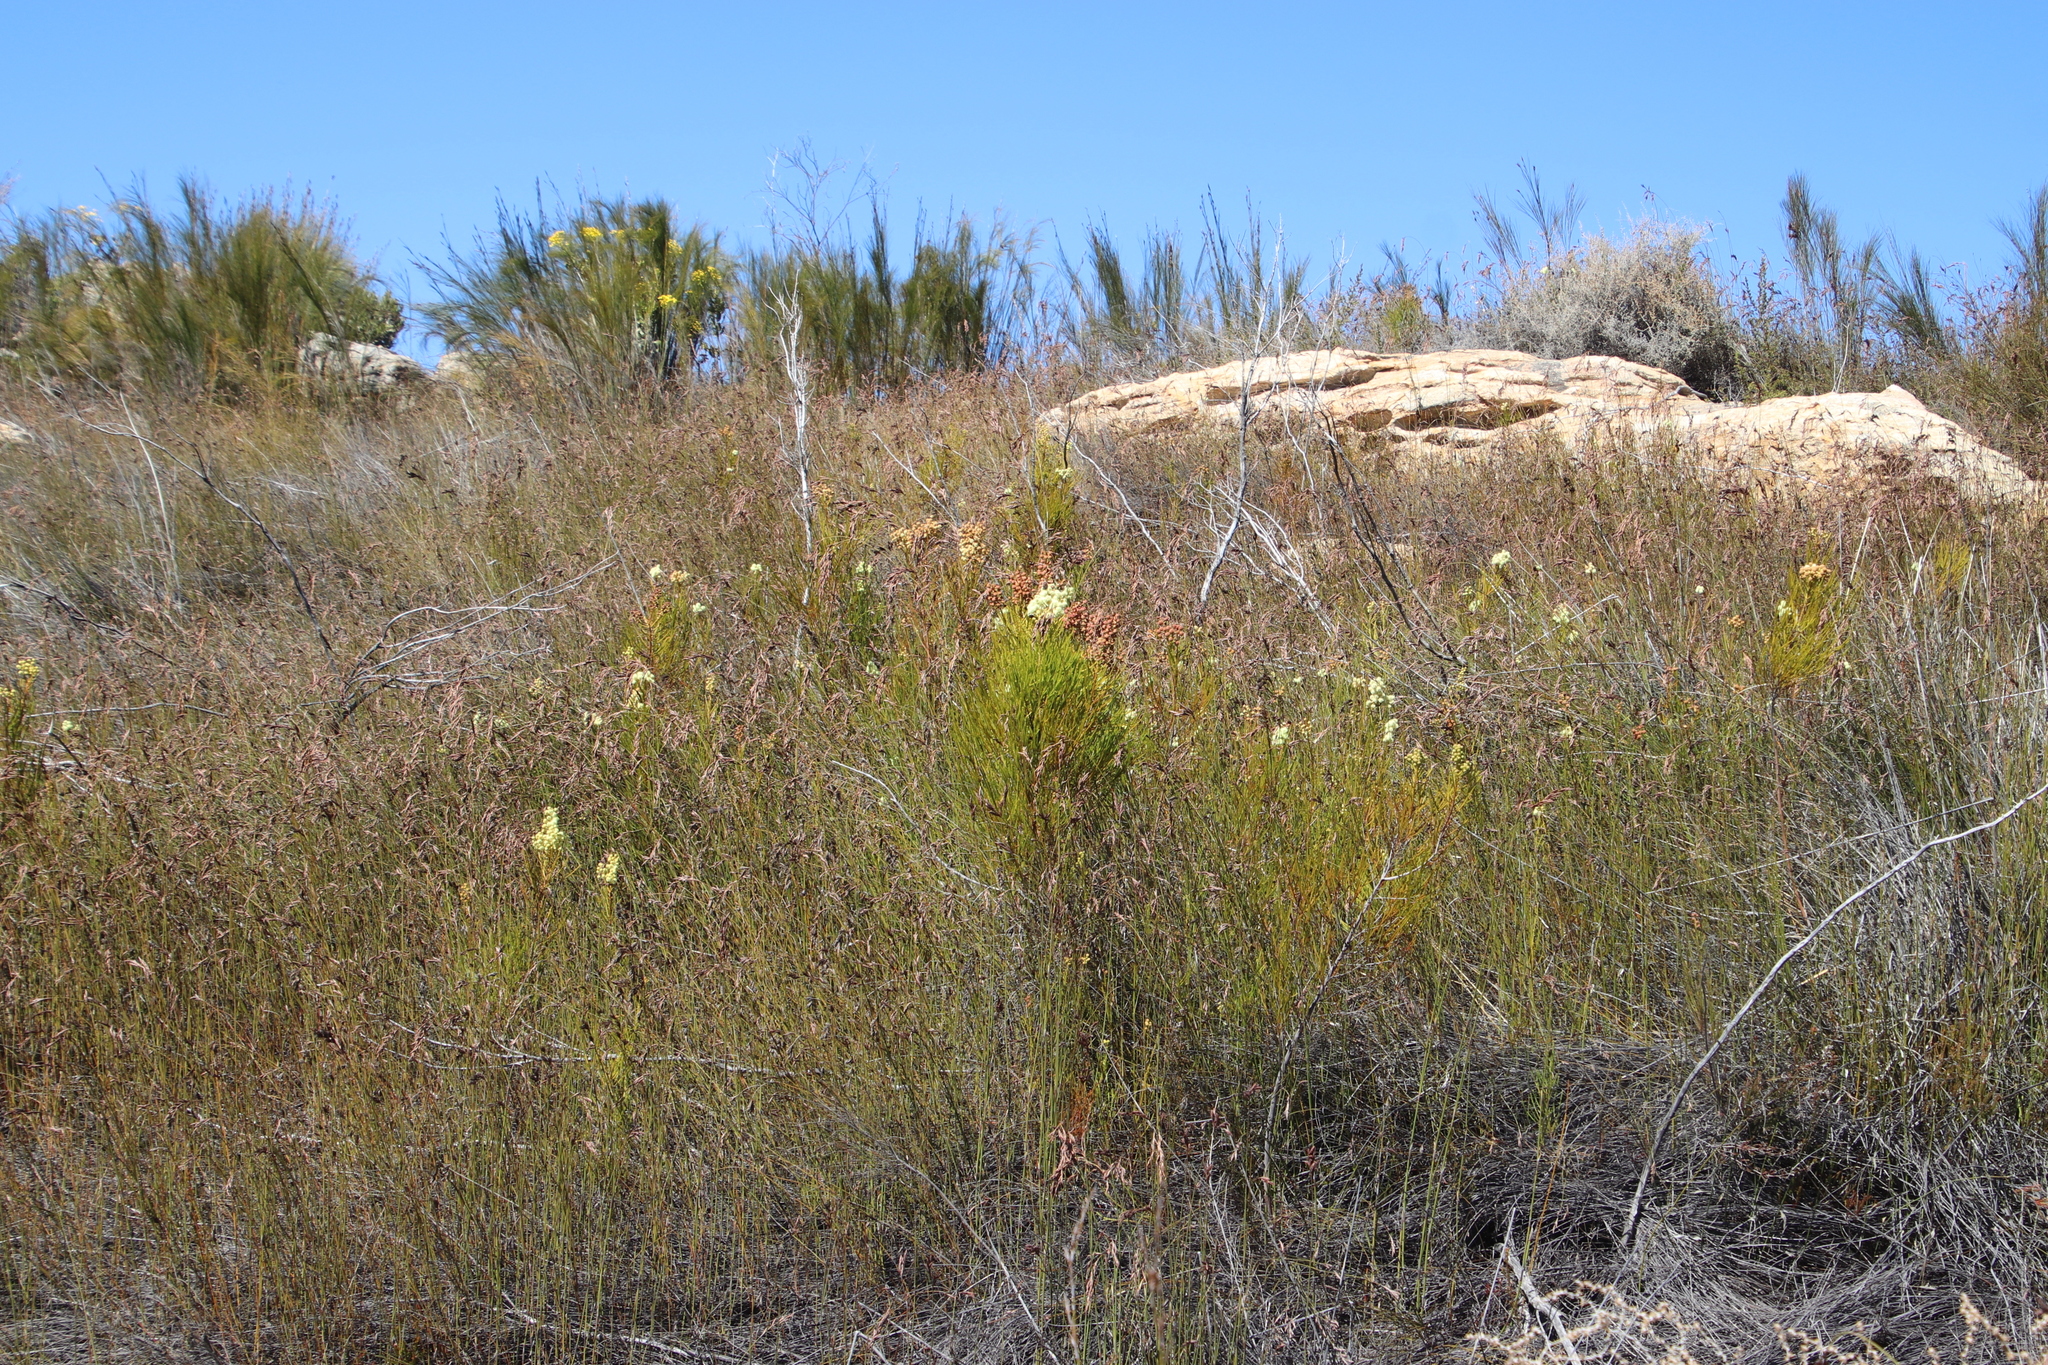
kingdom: Plantae
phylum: Tracheophyta
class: Magnoliopsida
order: Bruniales
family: Bruniaceae
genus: Berzelia
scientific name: Berzelia lanuginosa
